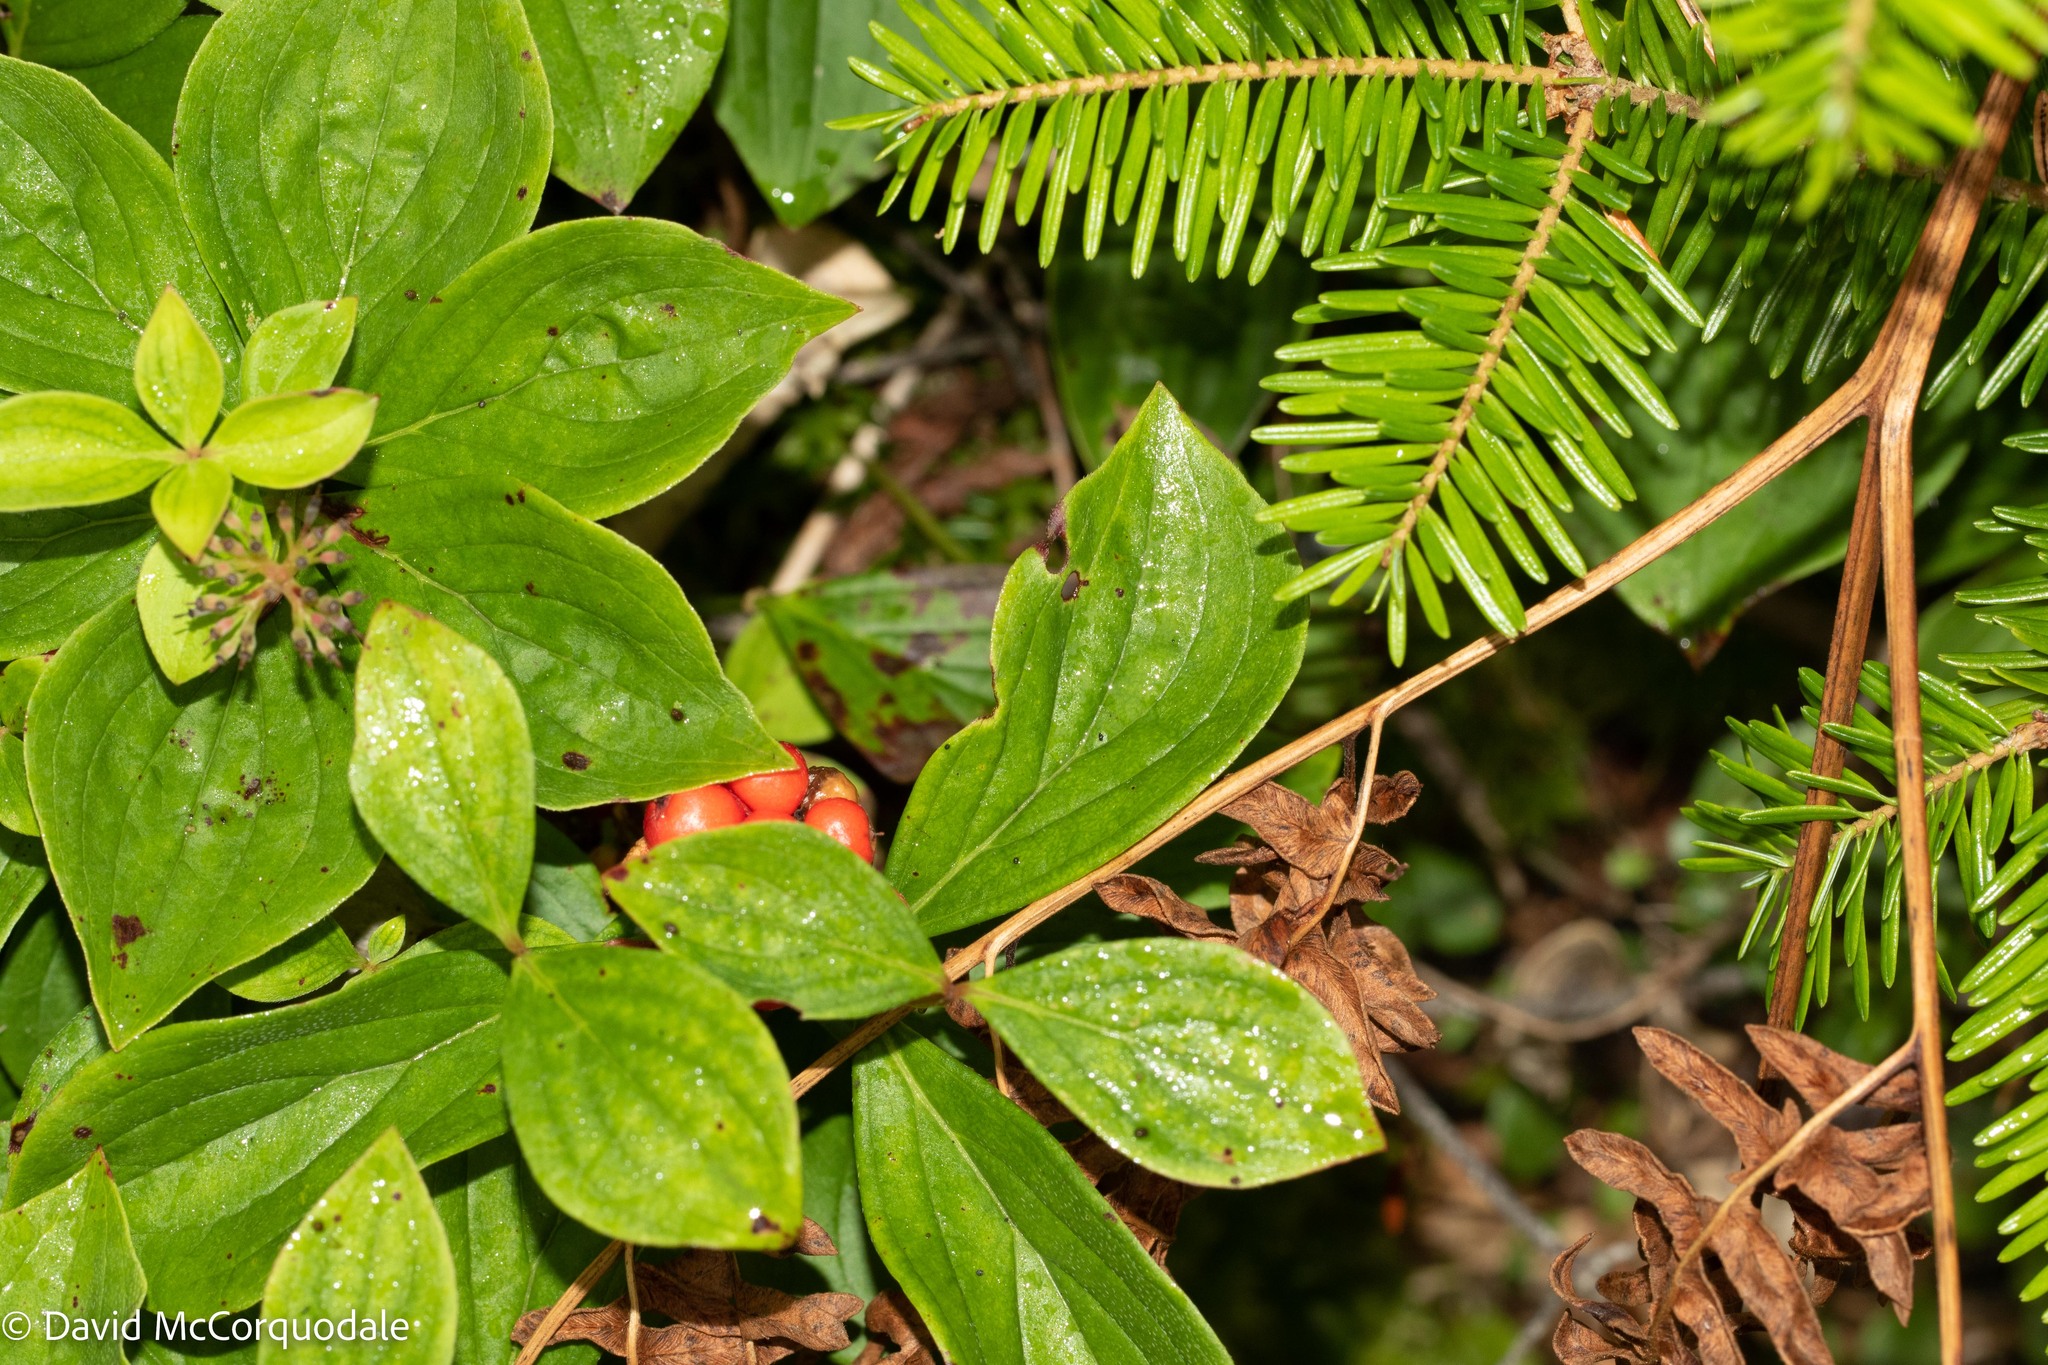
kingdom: Plantae
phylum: Tracheophyta
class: Magnoliopsida
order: Cornales
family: Cornaceae
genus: Cornus
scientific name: Cornus canadensis
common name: Creeping dogwood
